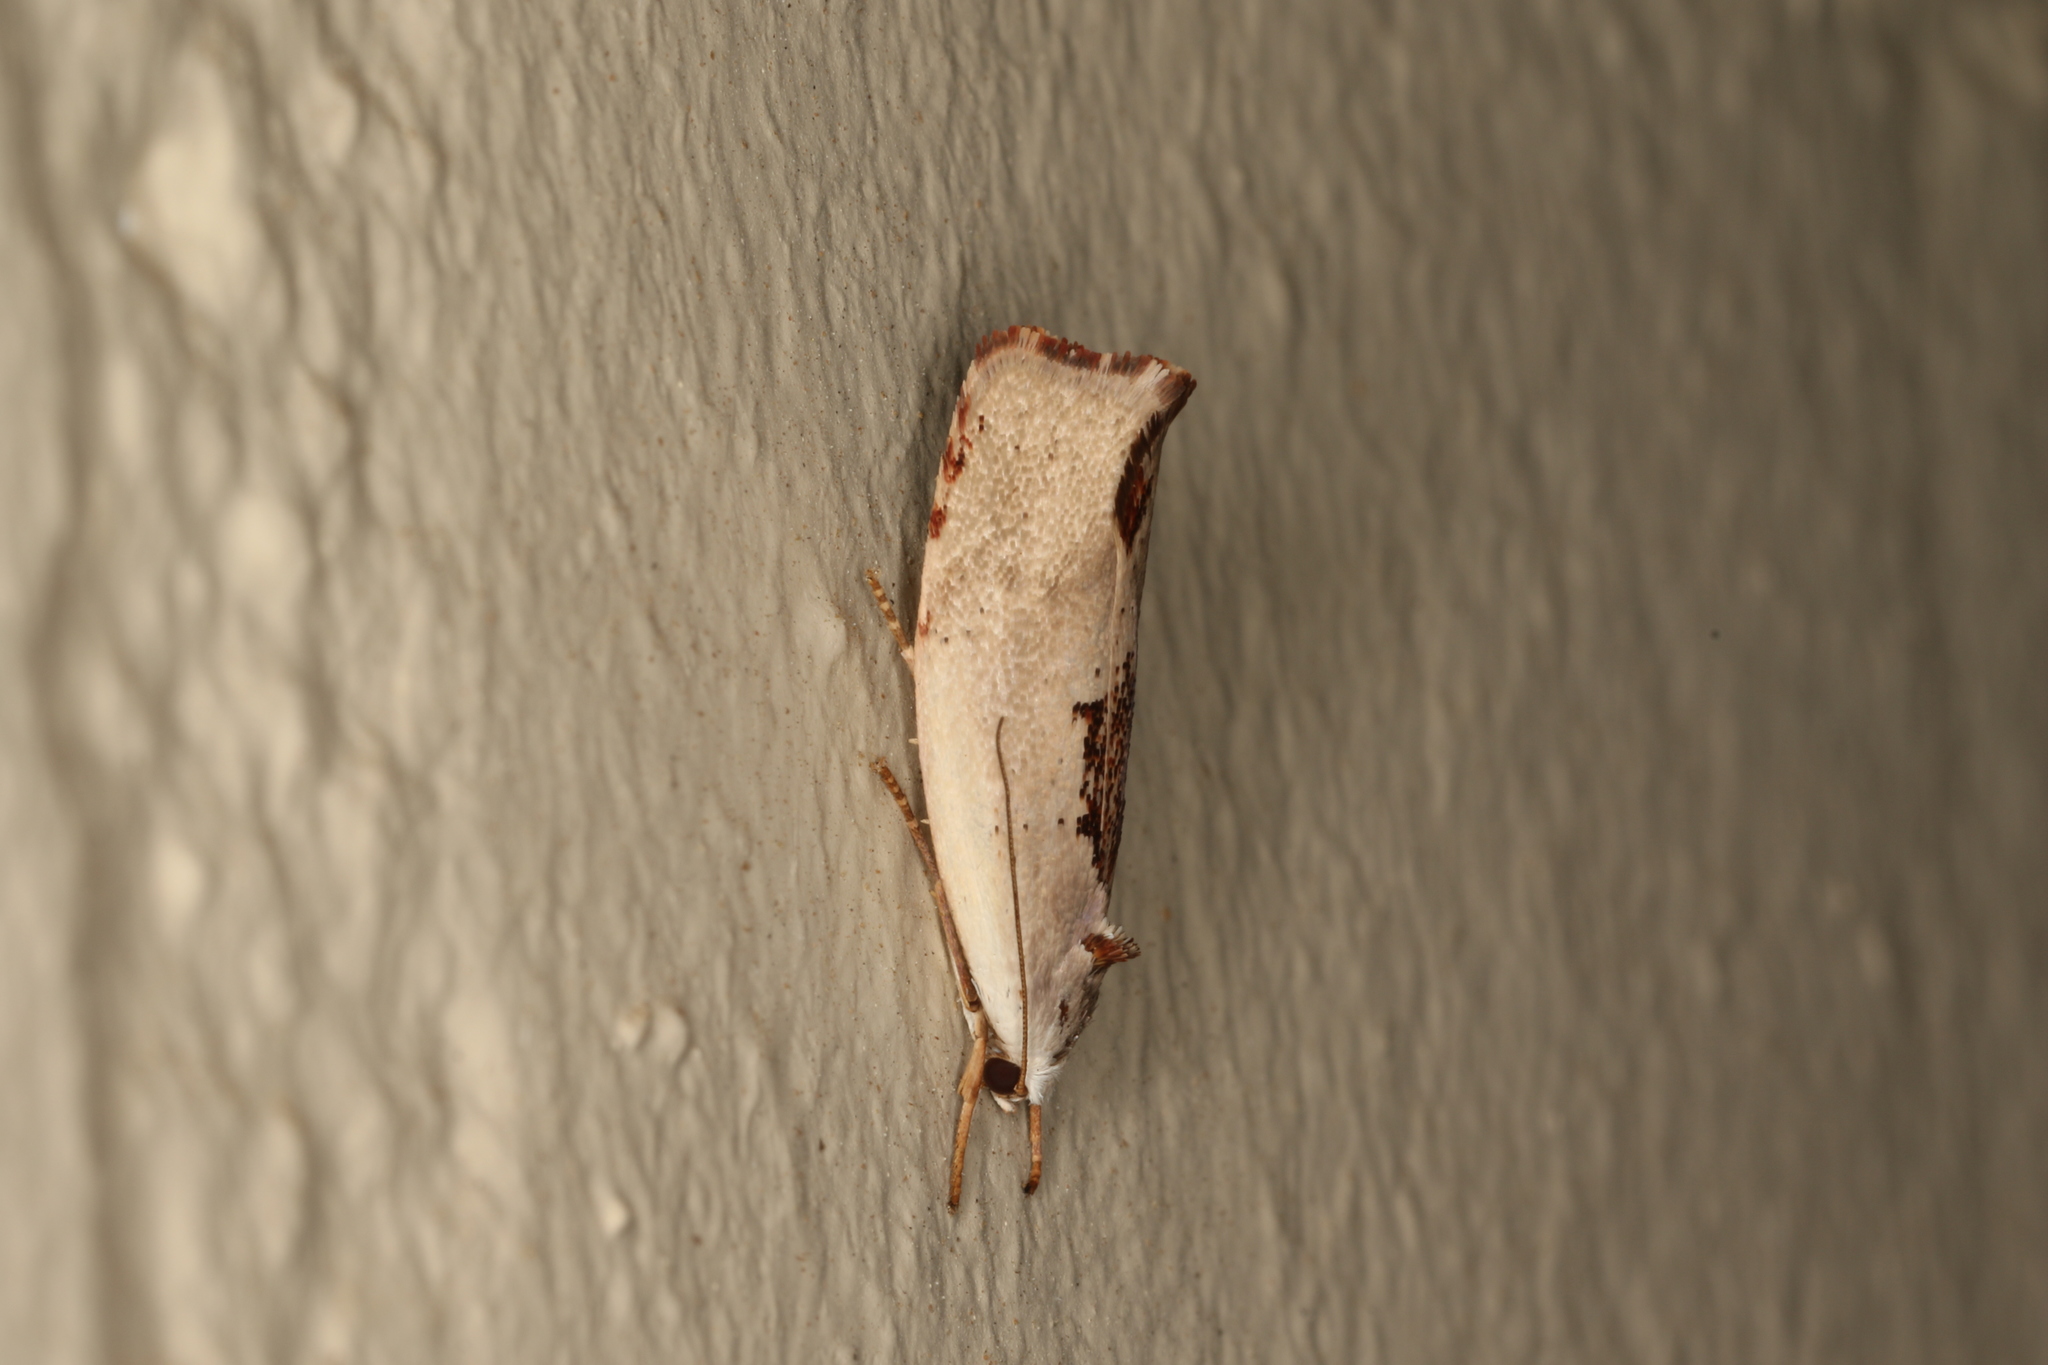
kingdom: Animalia
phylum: Arthropoda
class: Insecta
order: Lepidoptera
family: Xyloryctidae
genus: Tymbophora
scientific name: Tymbophora peltastis
